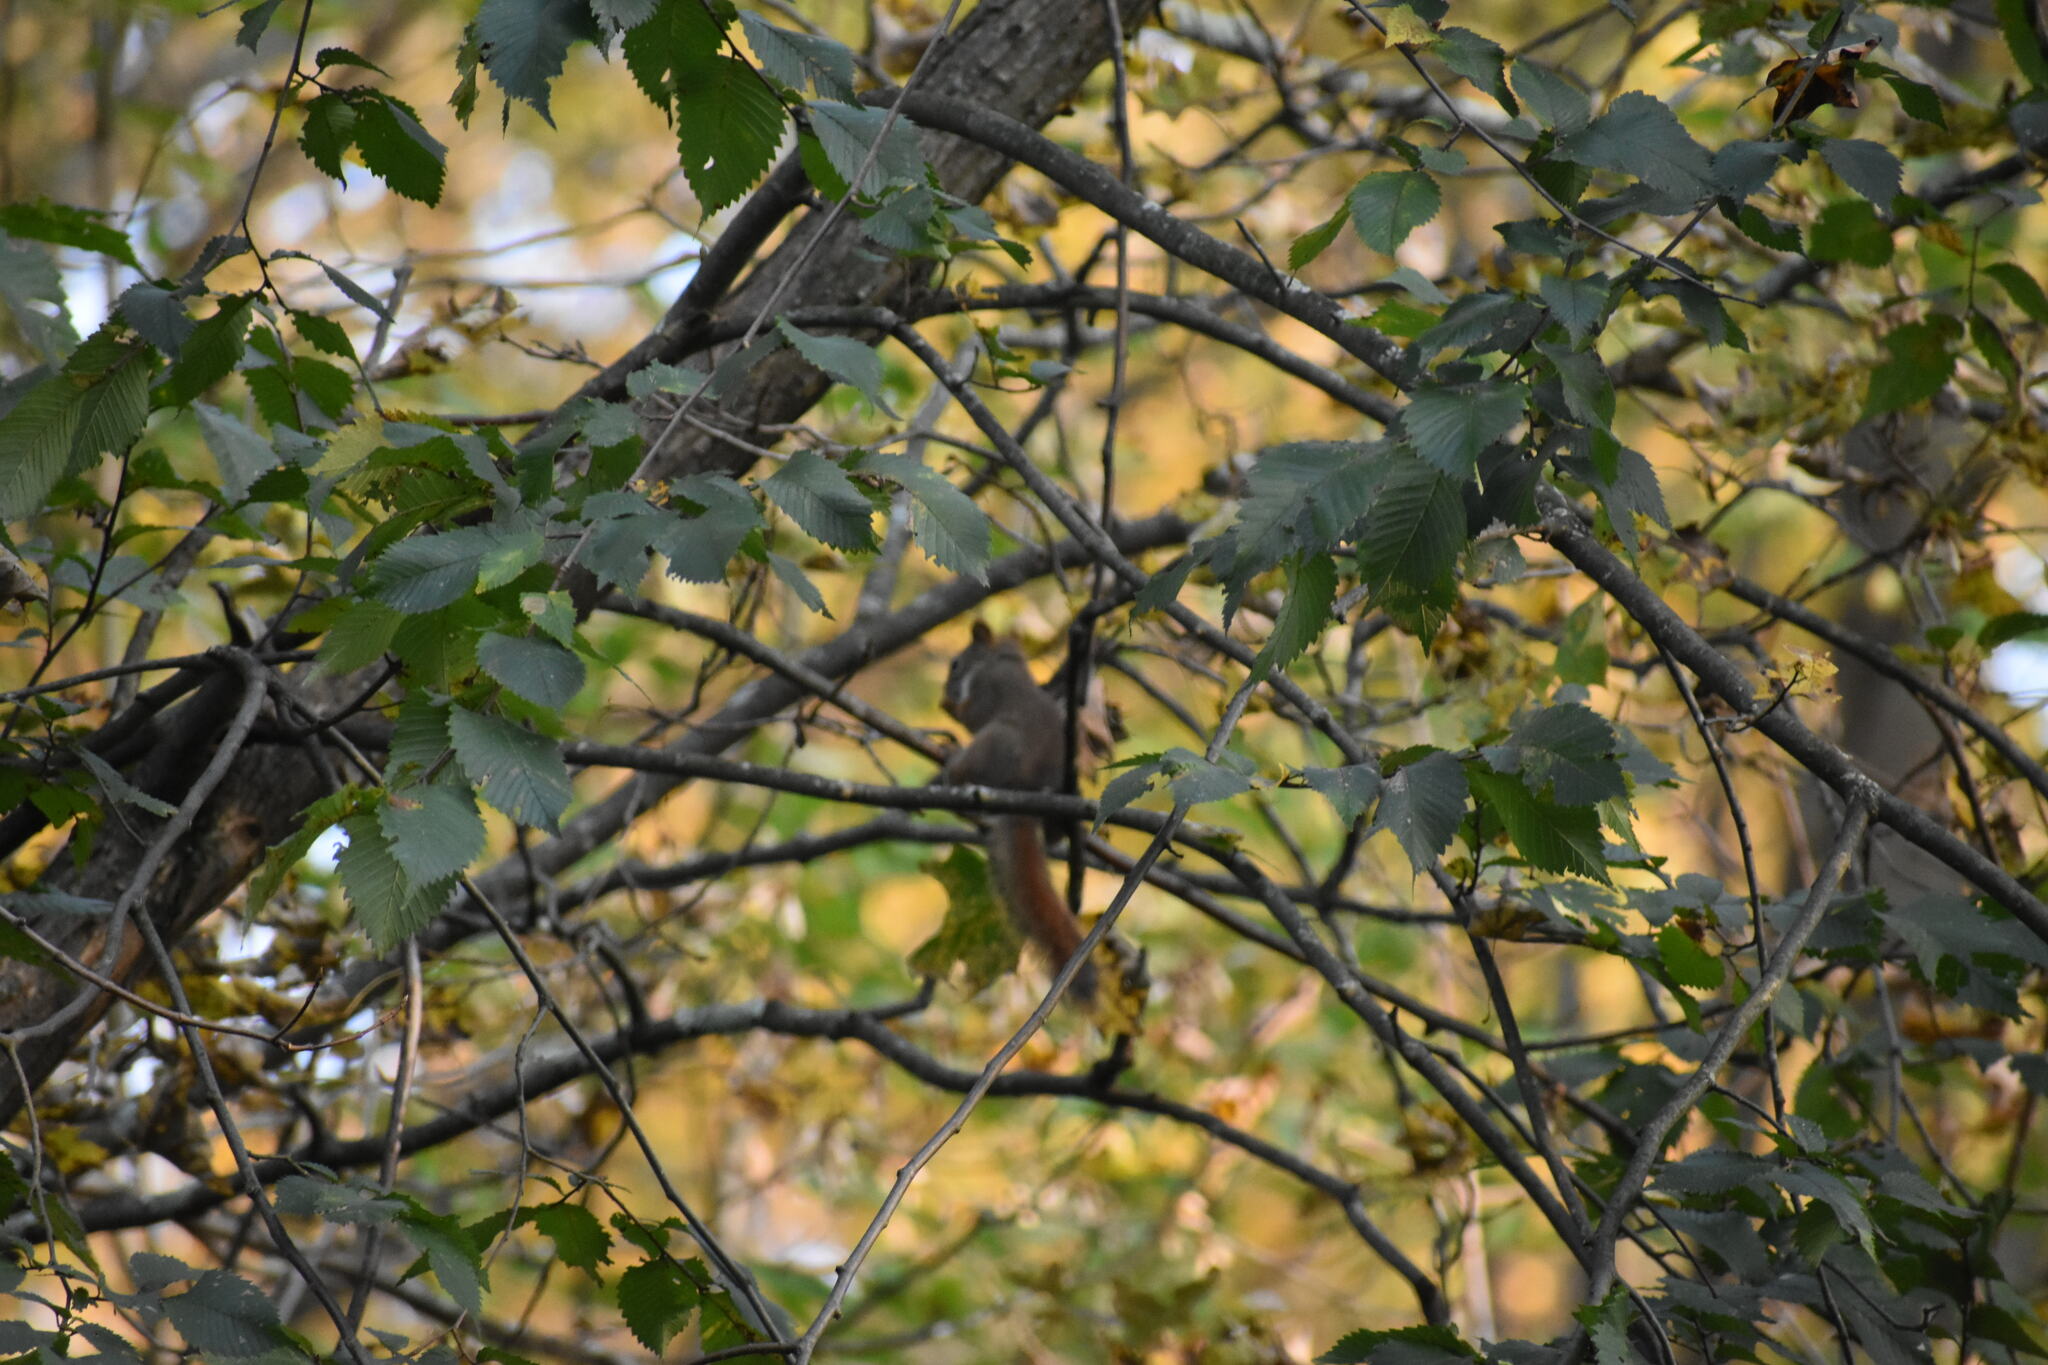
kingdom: Animalia
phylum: Chordata
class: Mammalia
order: Rodentia
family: Sciuridae
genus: Tamiasciurus
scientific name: Tamiasciurus hudsonicus
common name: Red squirrel
